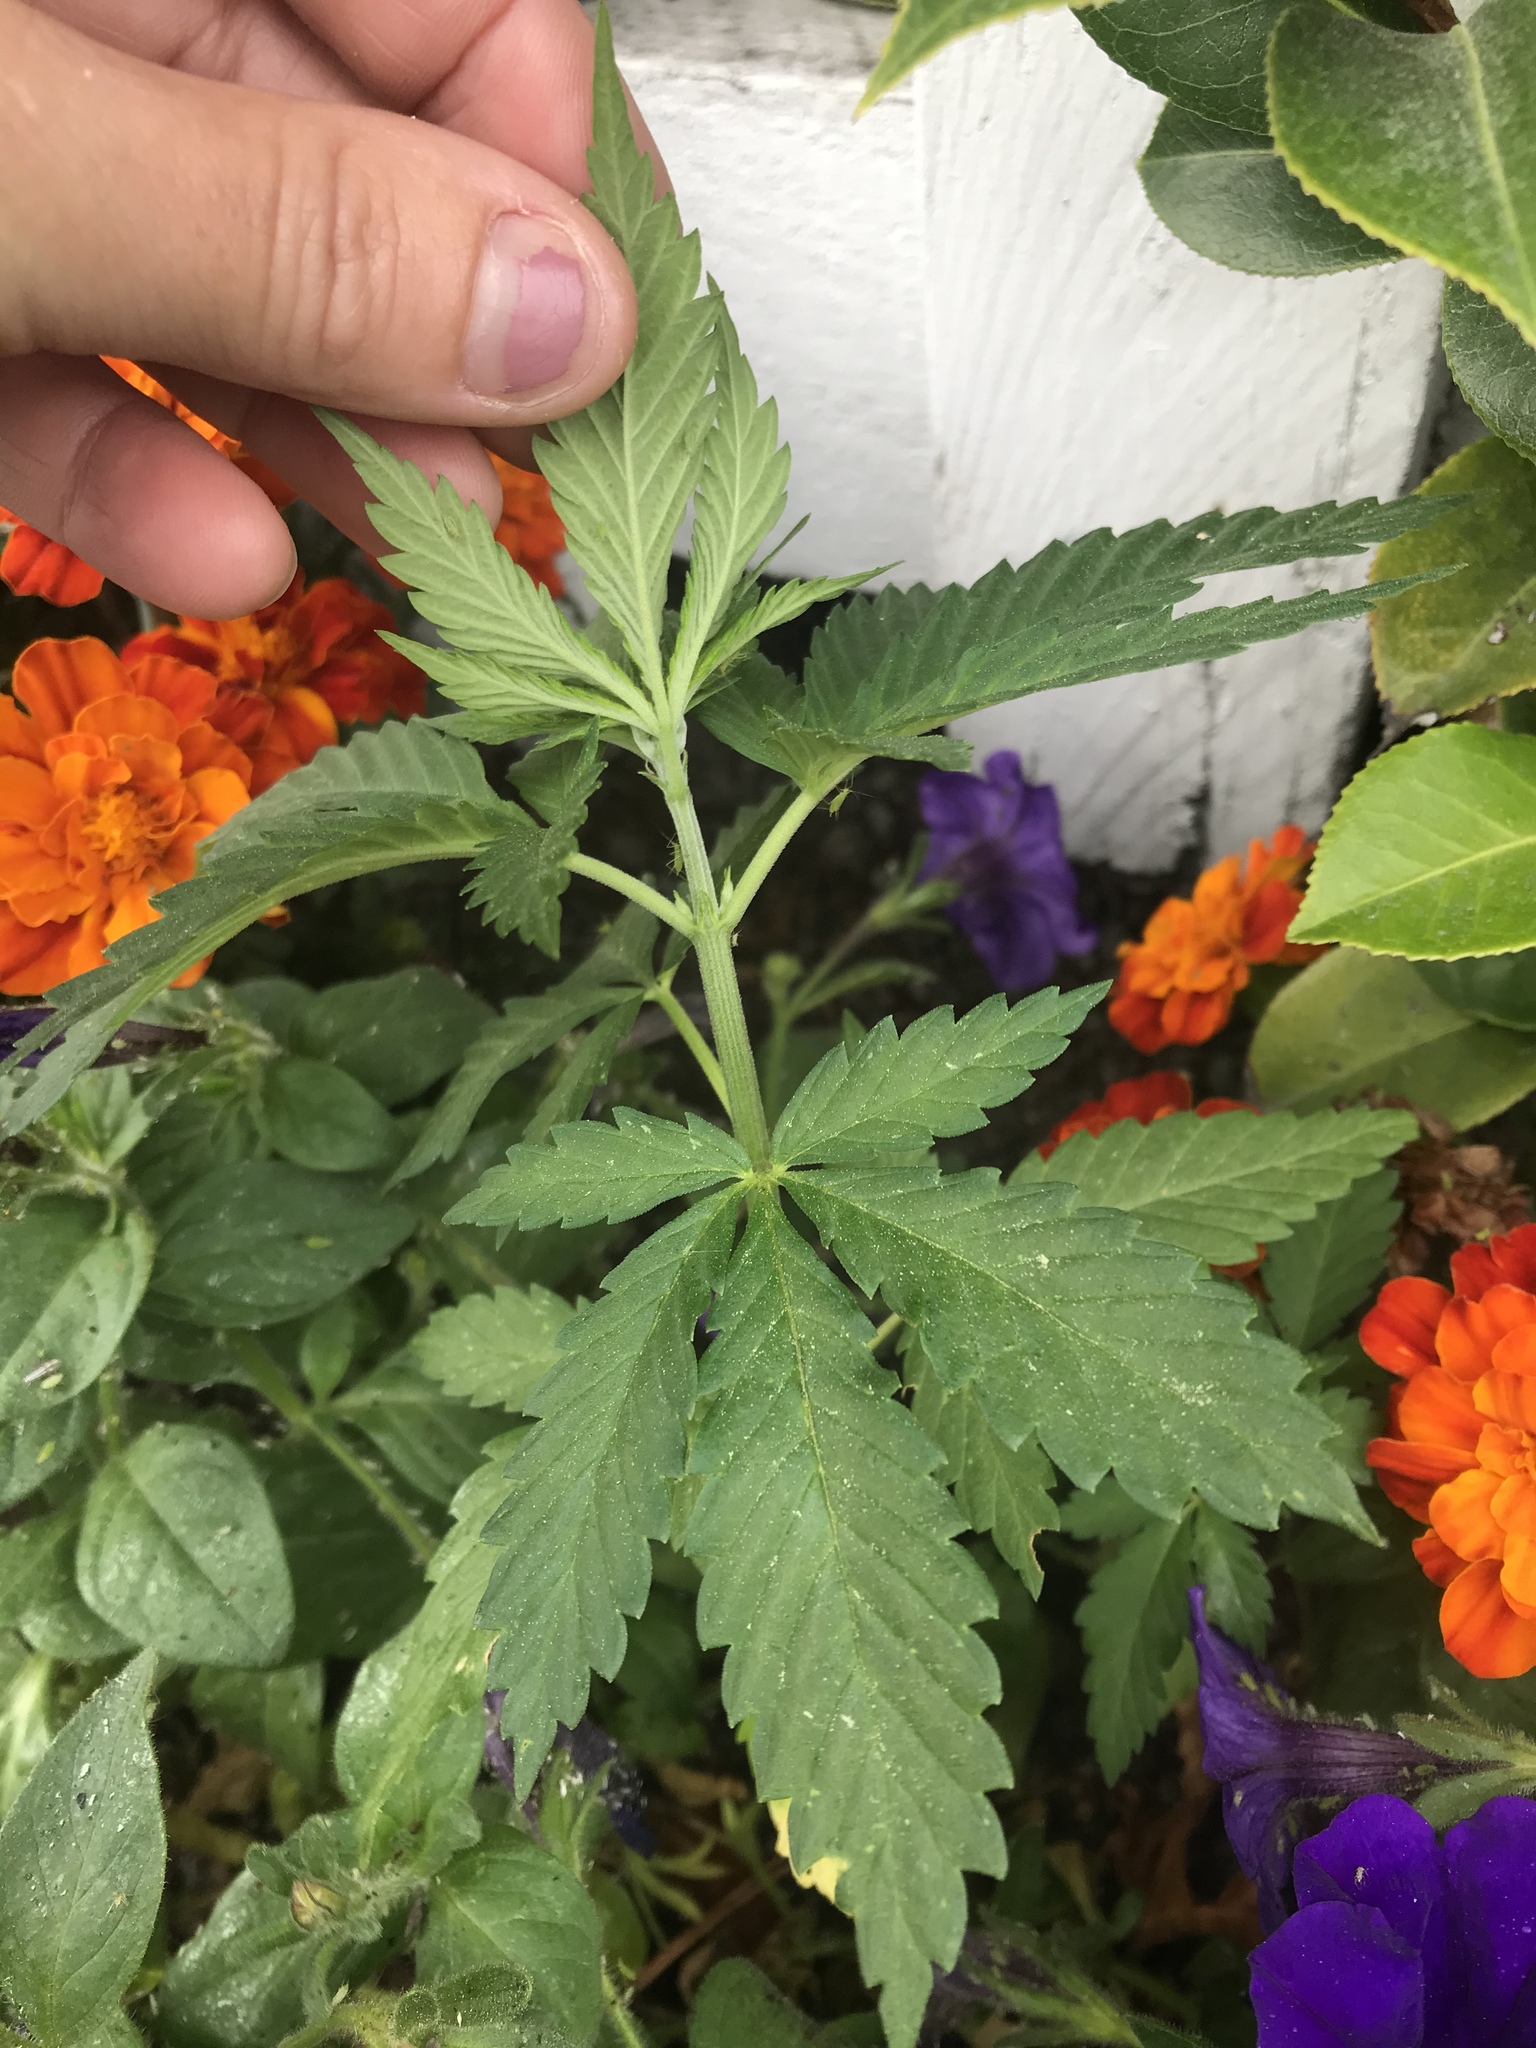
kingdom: Plantae
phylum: Tracheophyta
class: Magnoliopsida
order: Rosales
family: Cannabaceae
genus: Cannabis
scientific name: Cannabis sativa
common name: Hemp
